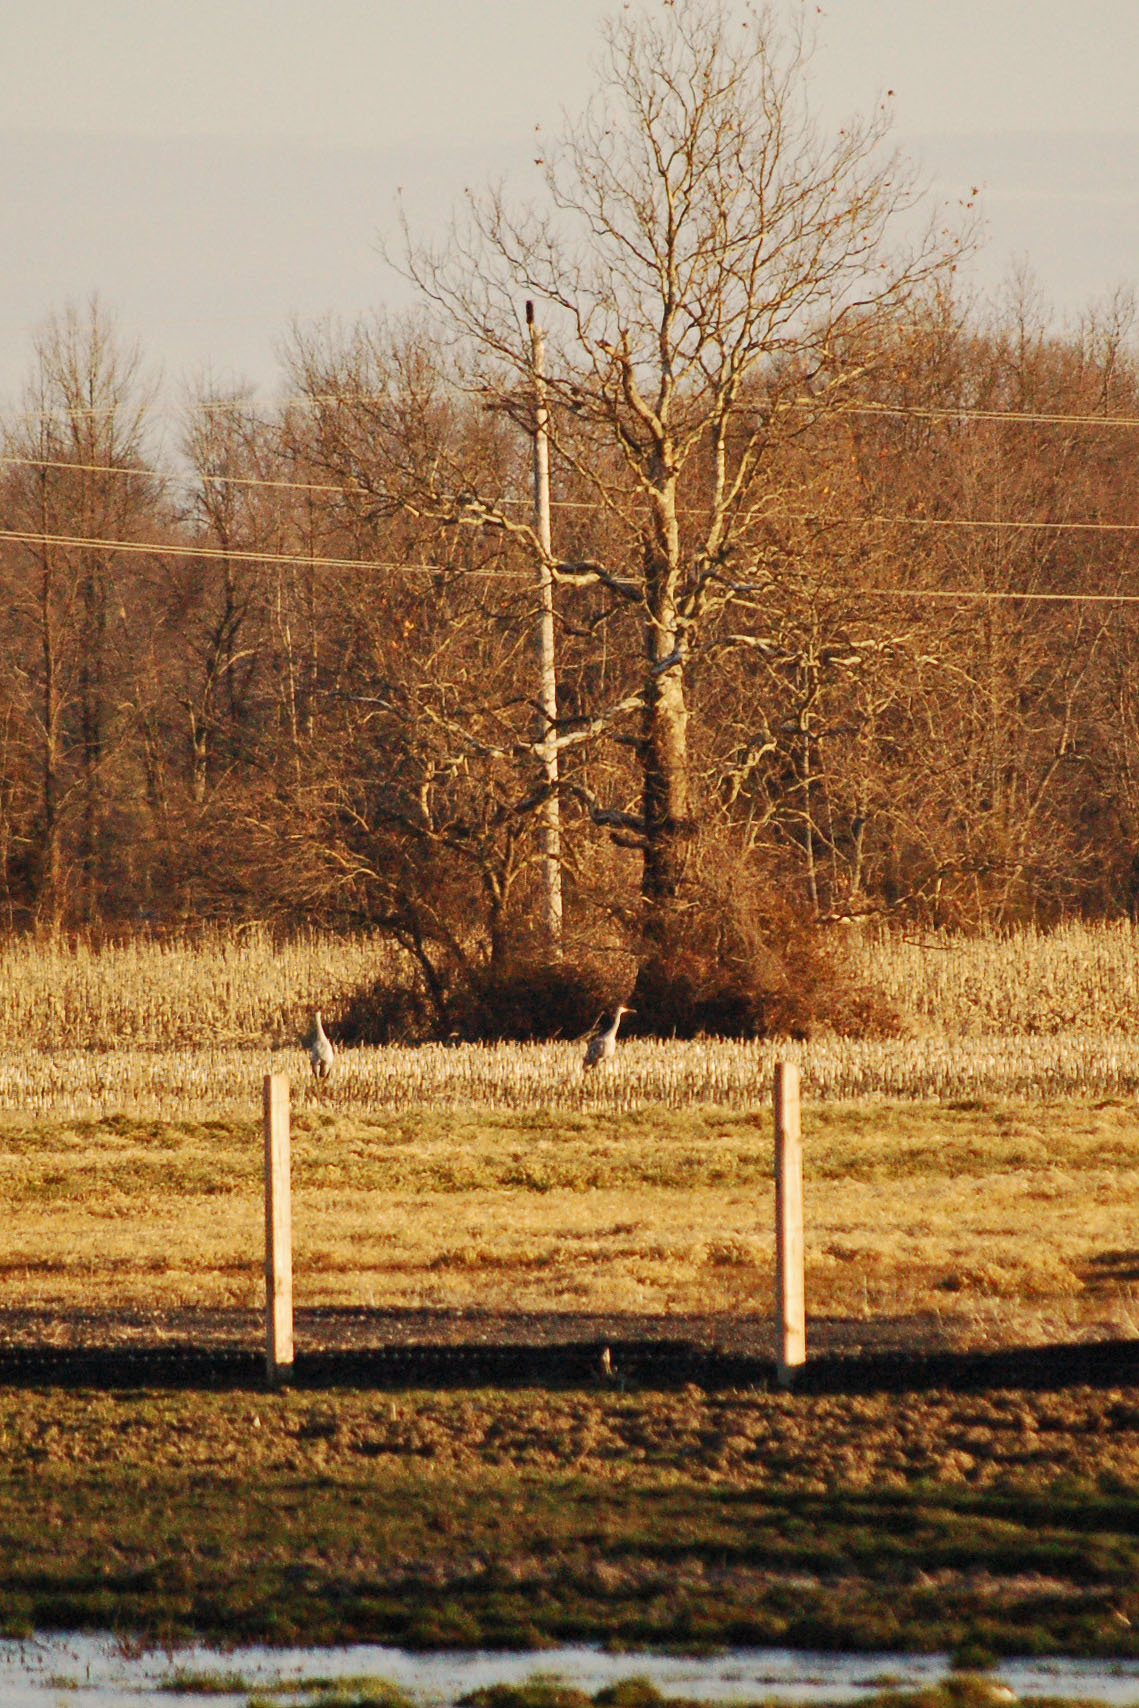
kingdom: Animalia
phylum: Chordata
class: Aves
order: Gruiformes
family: Gruidae
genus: Grus
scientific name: Grus canadensis
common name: Sandhill crane
